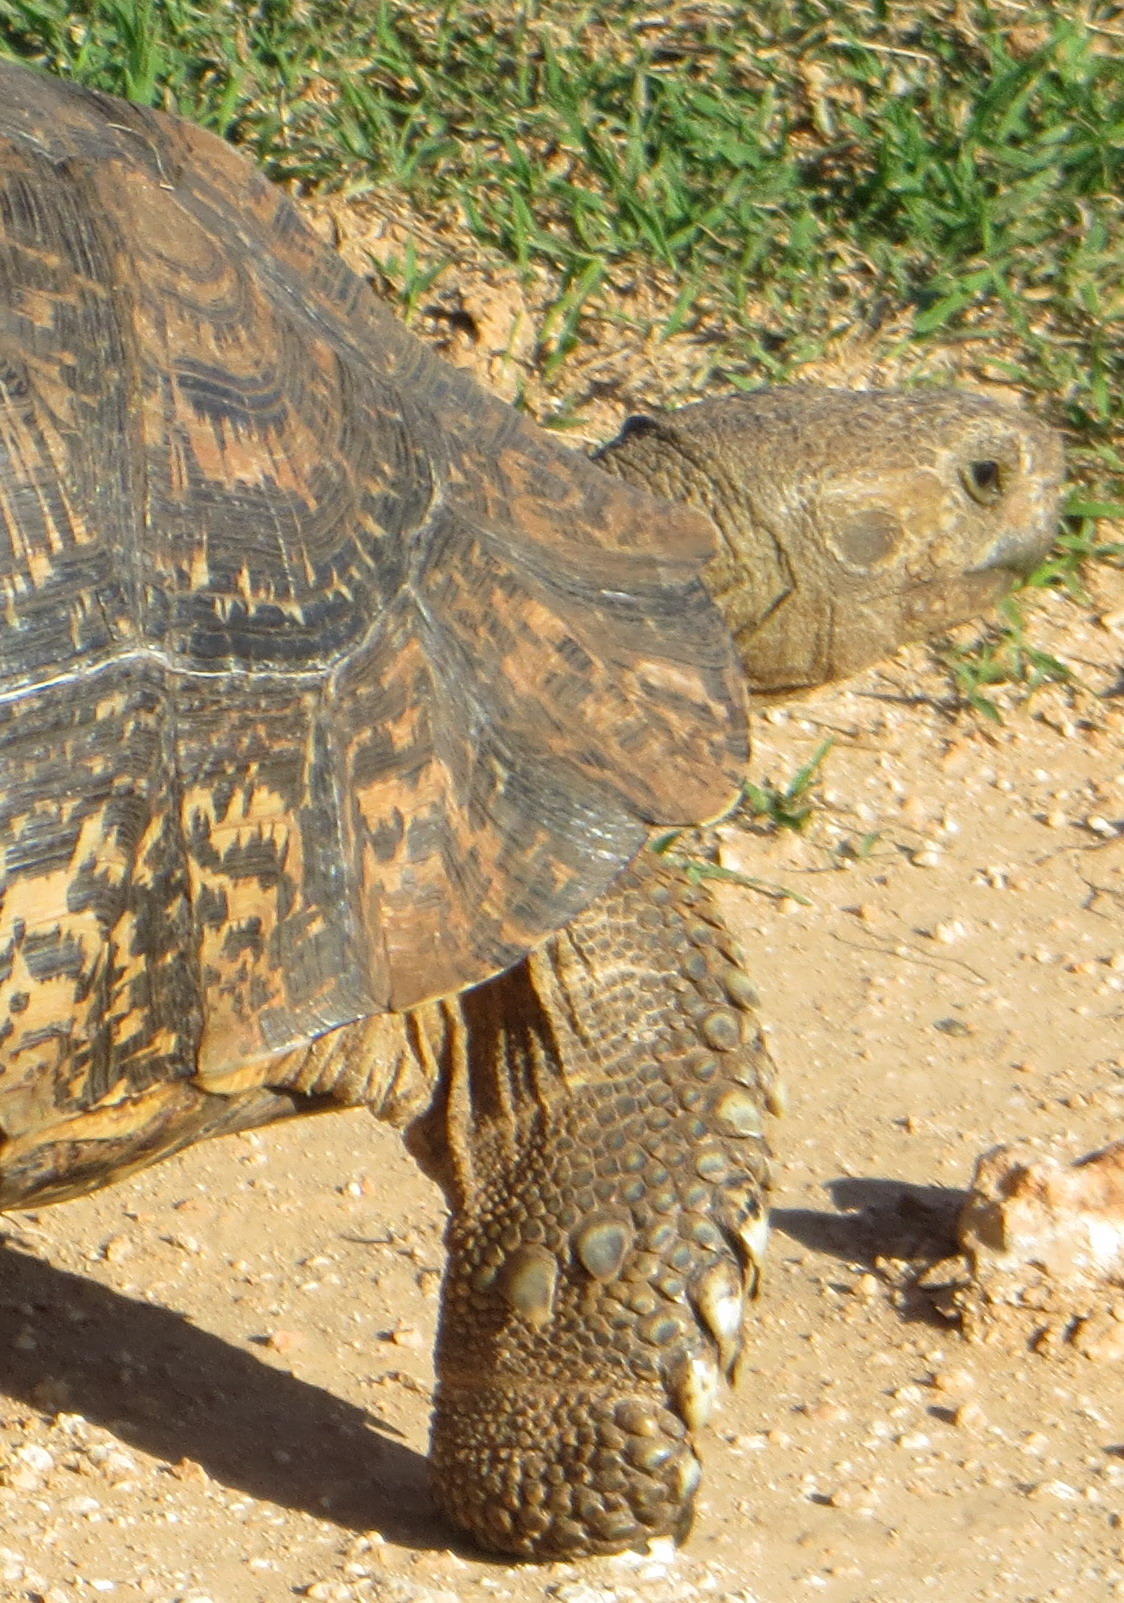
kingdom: Animalia
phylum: Chordata
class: Testudines
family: Testudinidae
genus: Stigmochelys
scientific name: Stigmochelys pardalis
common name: Leopard tortoise
